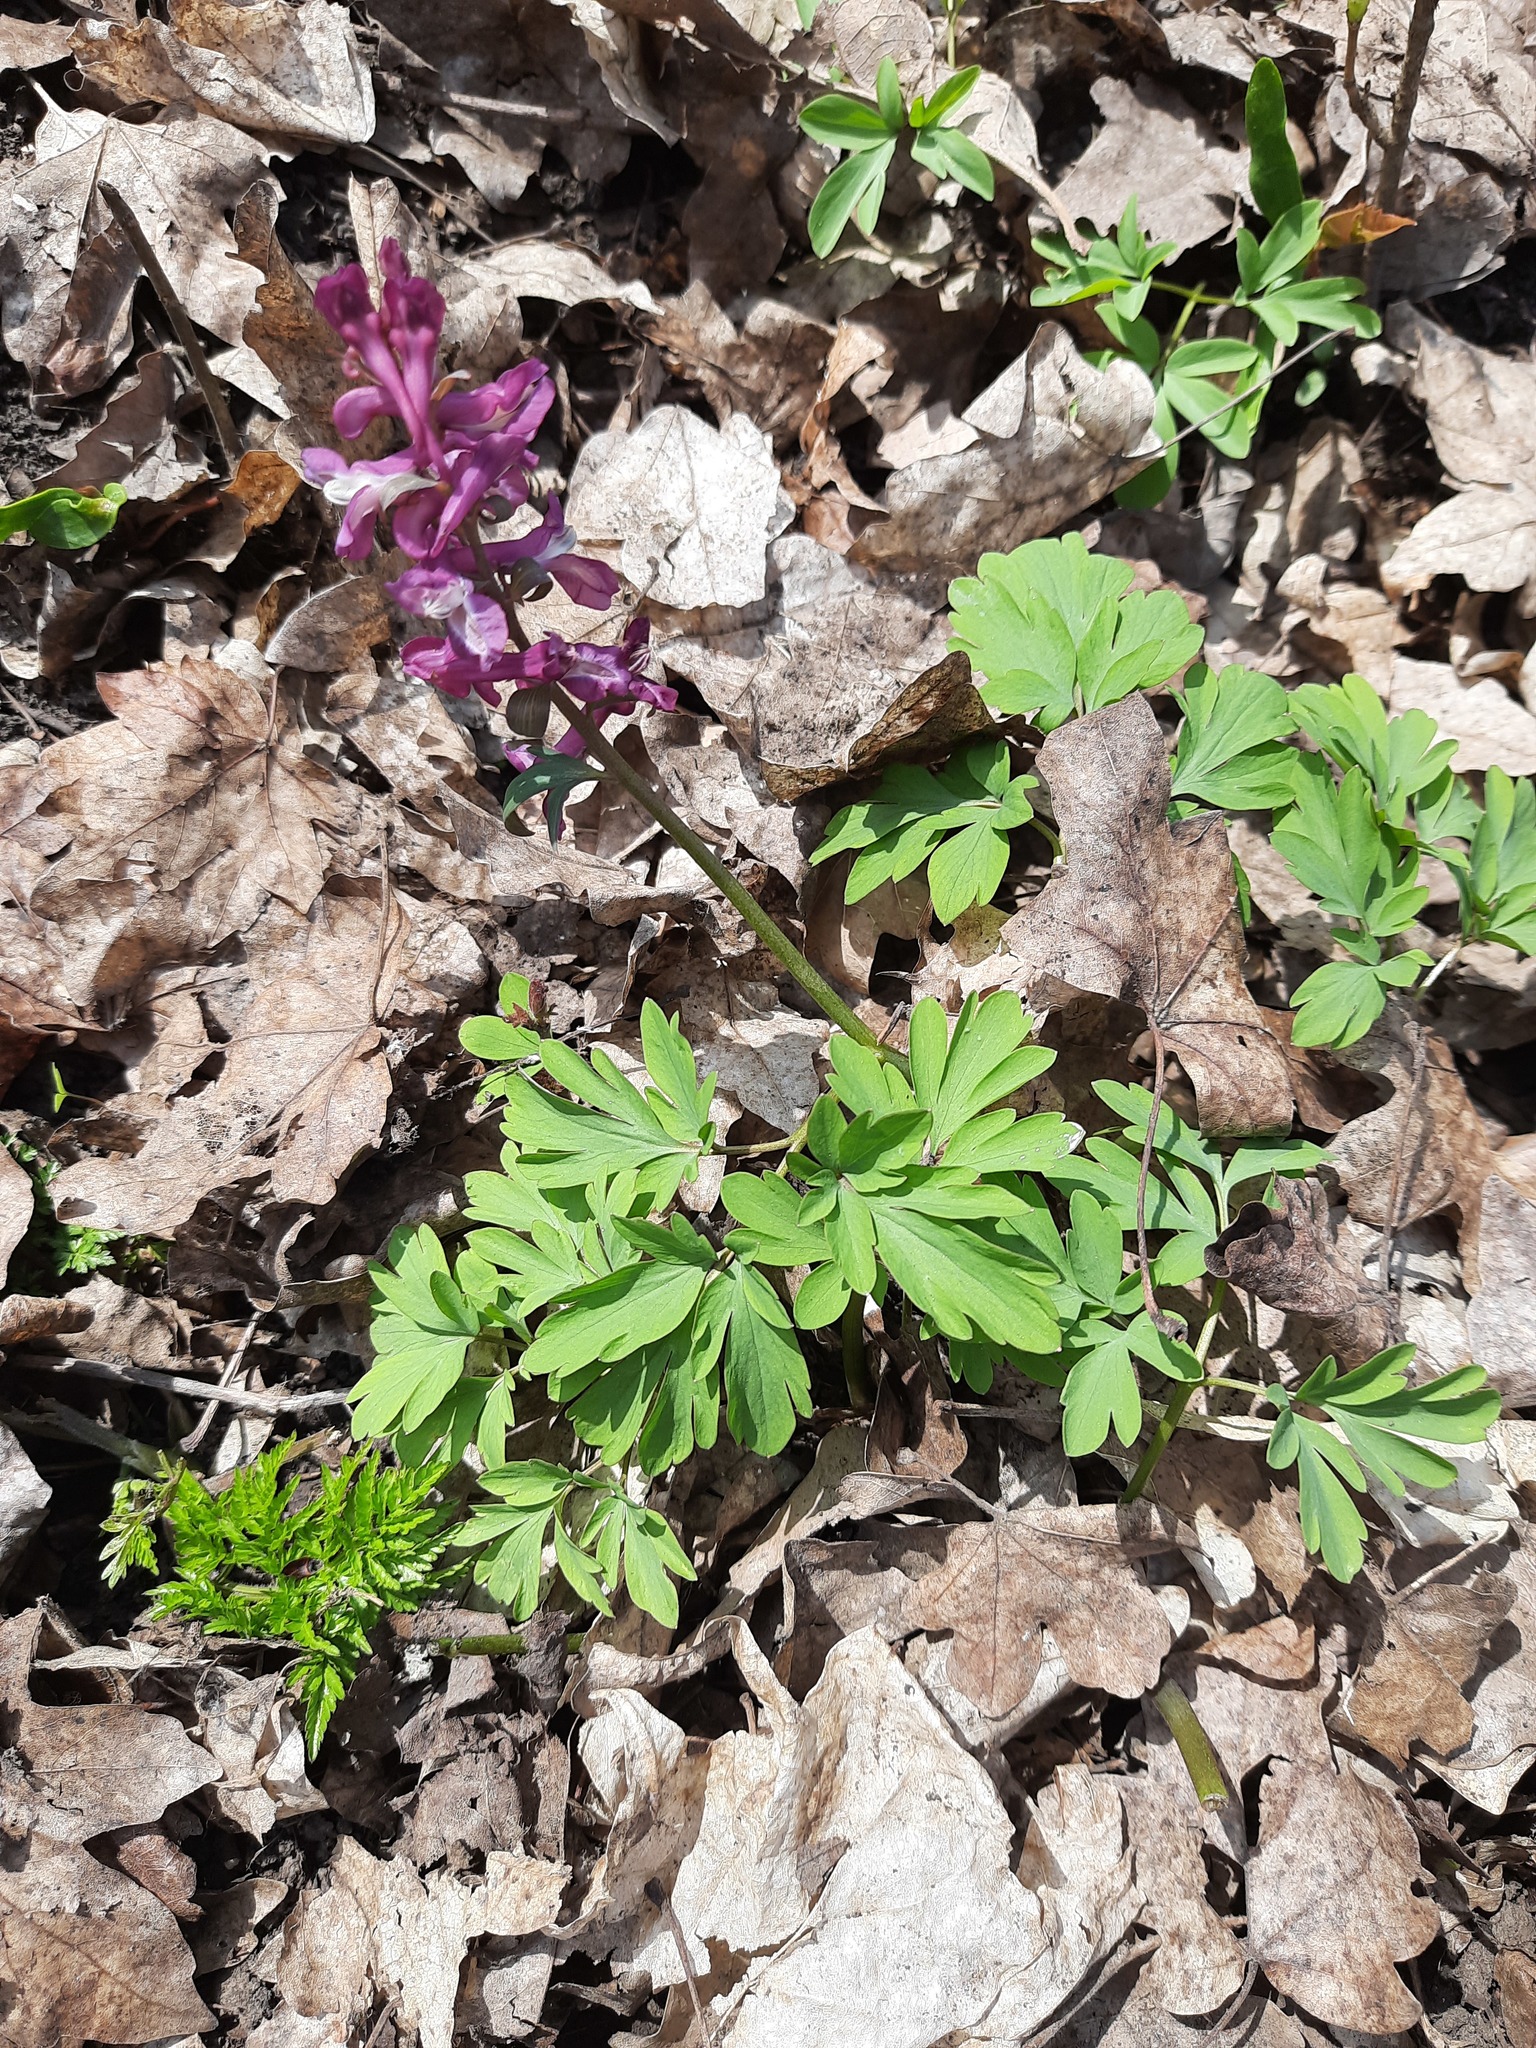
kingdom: Plantae
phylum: Tracheophyta
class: Magnoliopsida
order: Ranunculales
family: Papaveraceae
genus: Corydalis
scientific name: Corydalis cava
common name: Hollowroot
